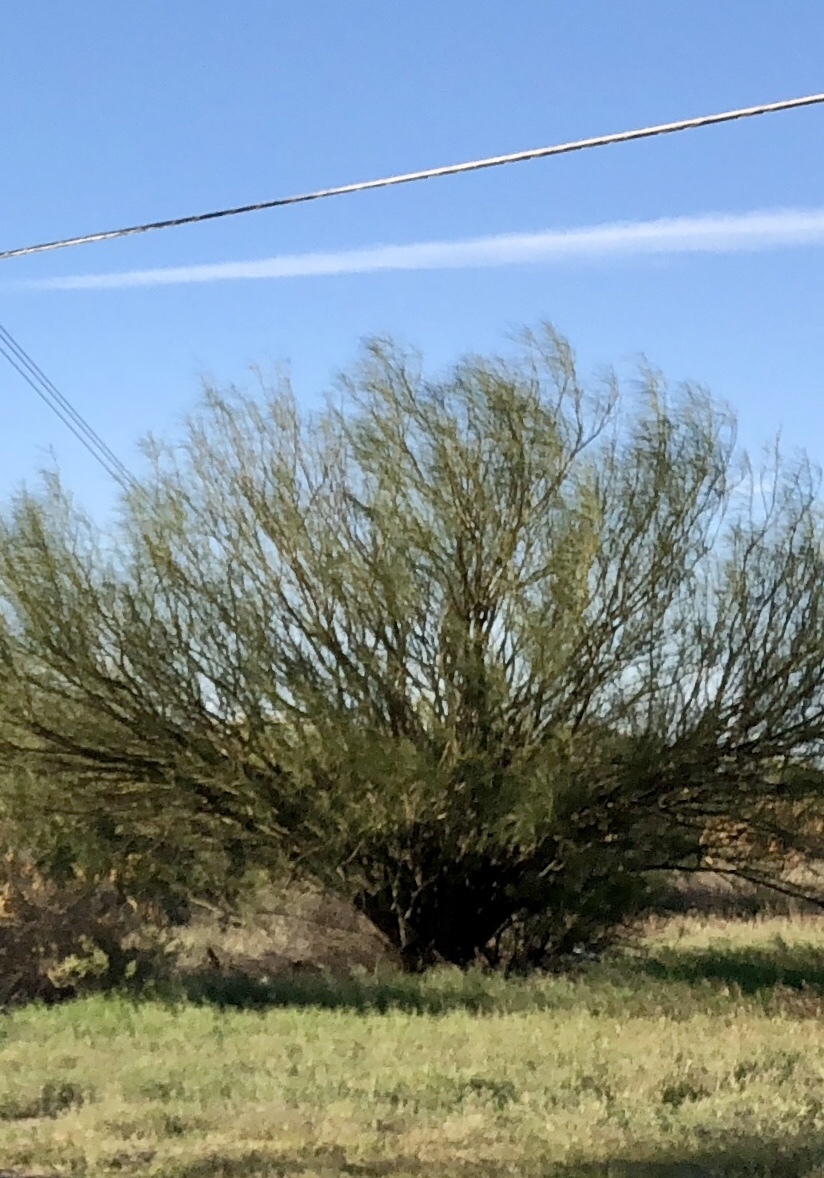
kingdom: Plantae
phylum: Tracheophyta
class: Magnoliopsida
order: Fabales
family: Fabaceae
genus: Parkinsonia
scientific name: Parkinsonia aculeata
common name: Jerusalem thorn
